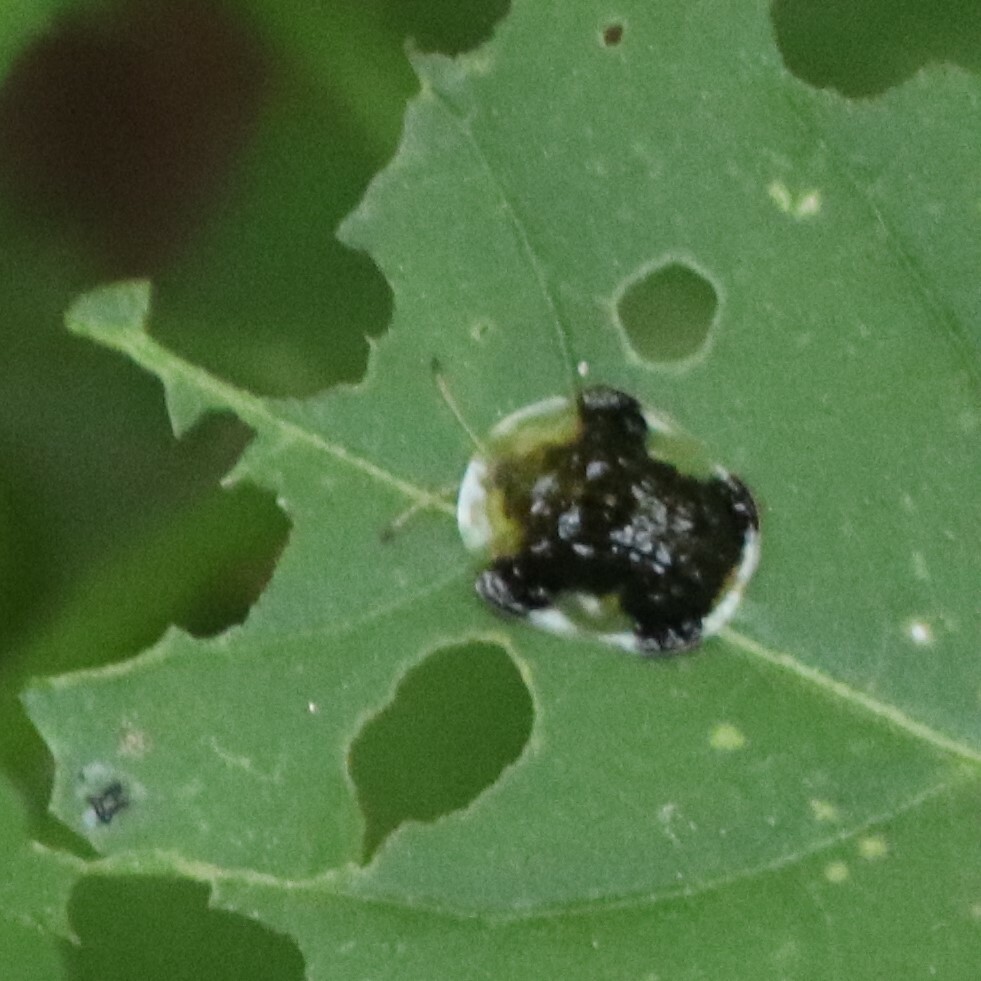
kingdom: Animalia
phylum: Arthropoda
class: Insecta
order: Coleoptera
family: Chrysomelidae
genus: Helocassis
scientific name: Helocassis clavata
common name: Clavate tortoise beetle
